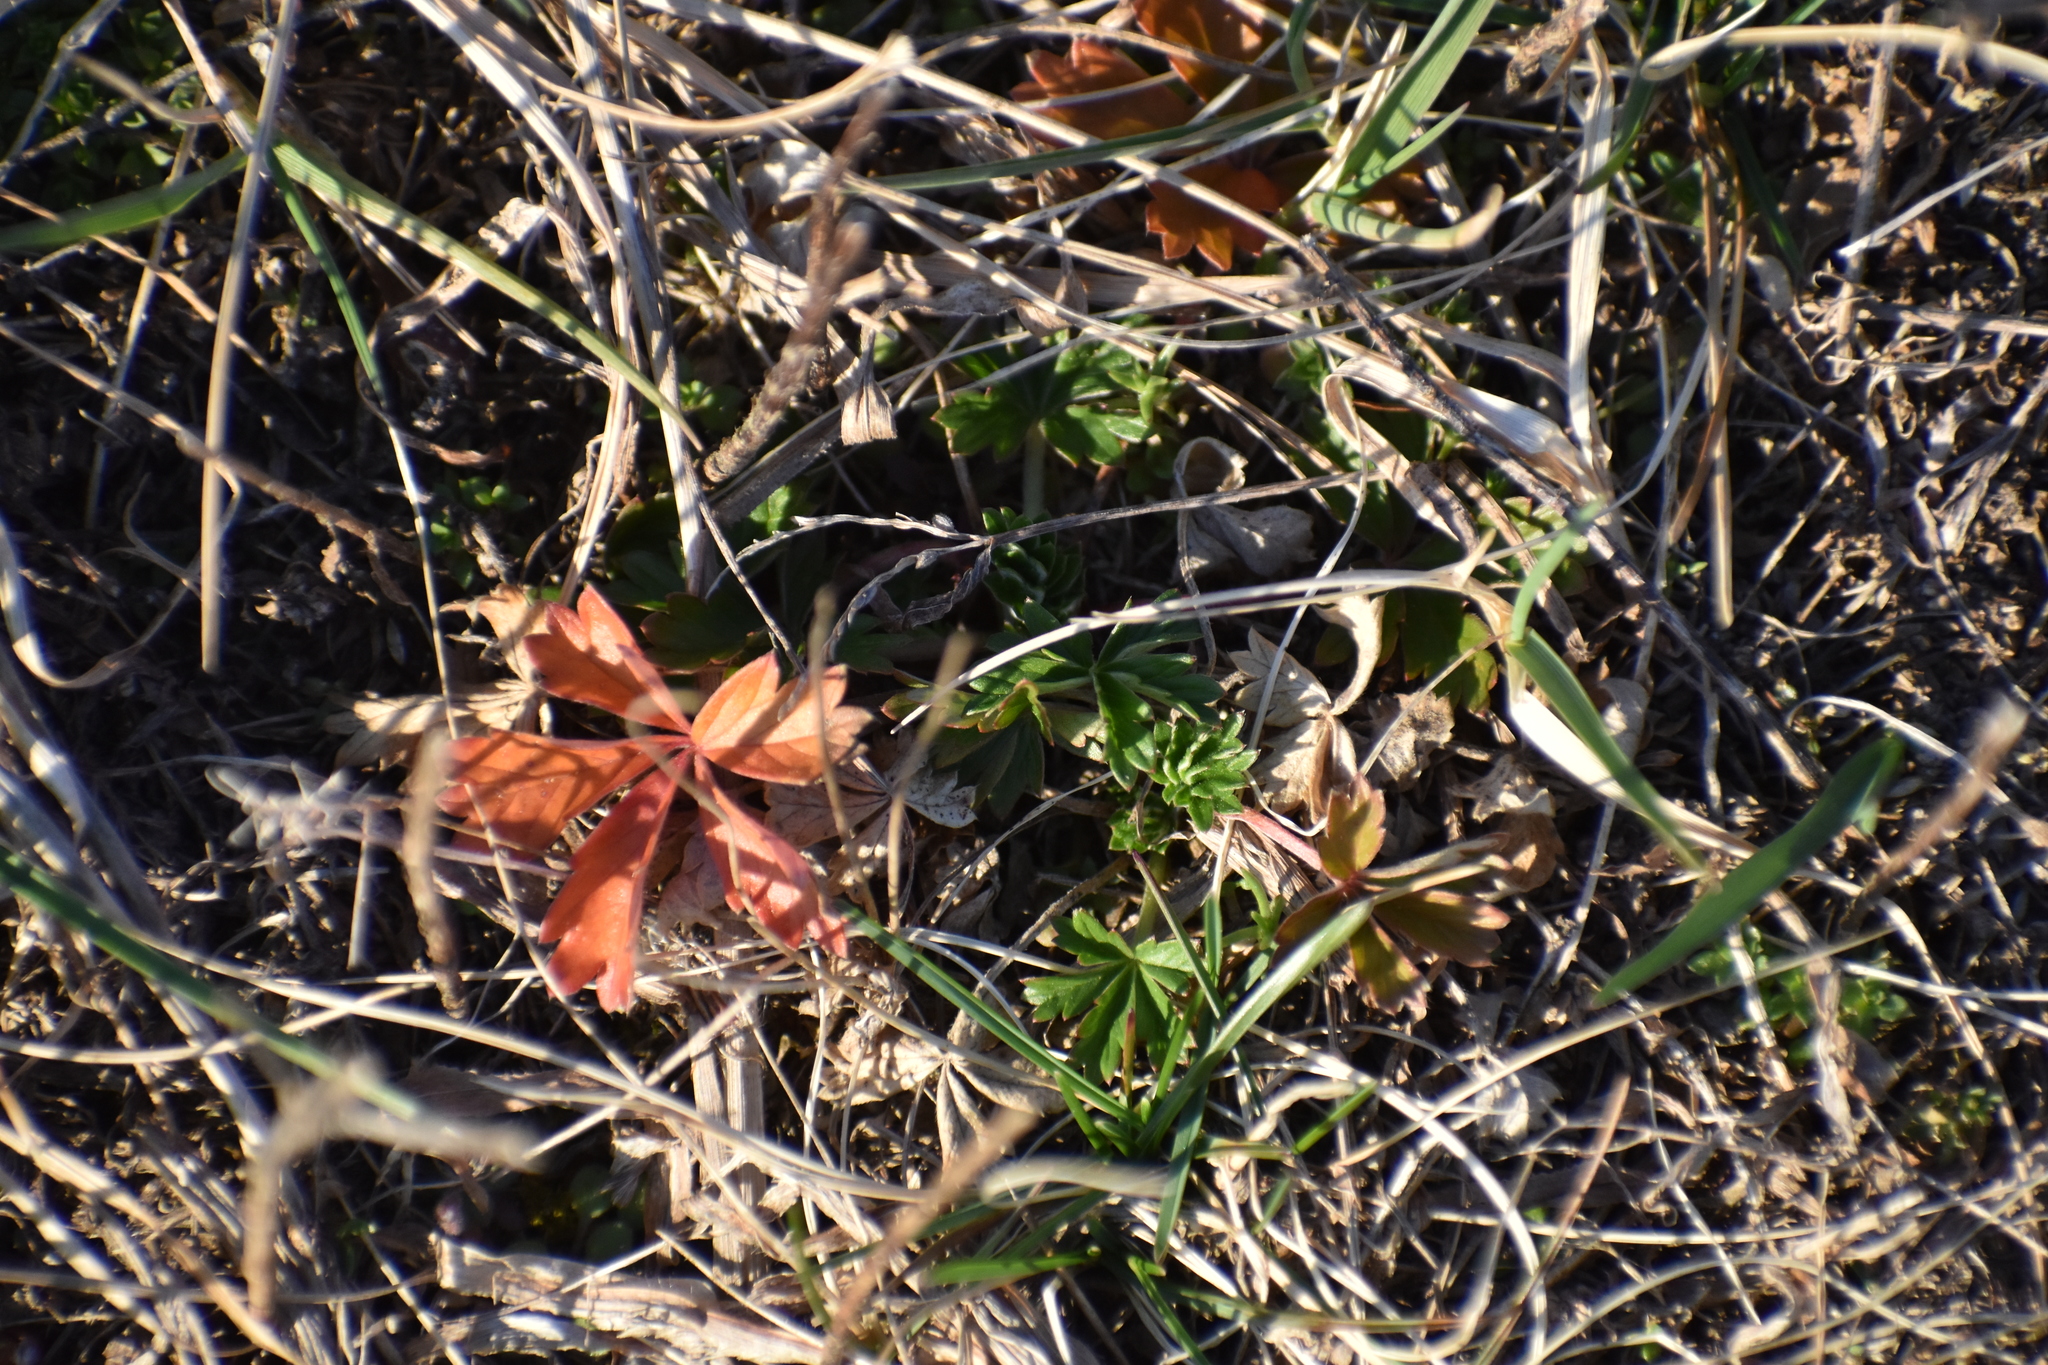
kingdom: Plantae
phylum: Tracheophyta
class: Magnoliopsida
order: Rosales
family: Rosaceae
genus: Potentilla
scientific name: Potentilla argentea
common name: Hoary cinquefoil
